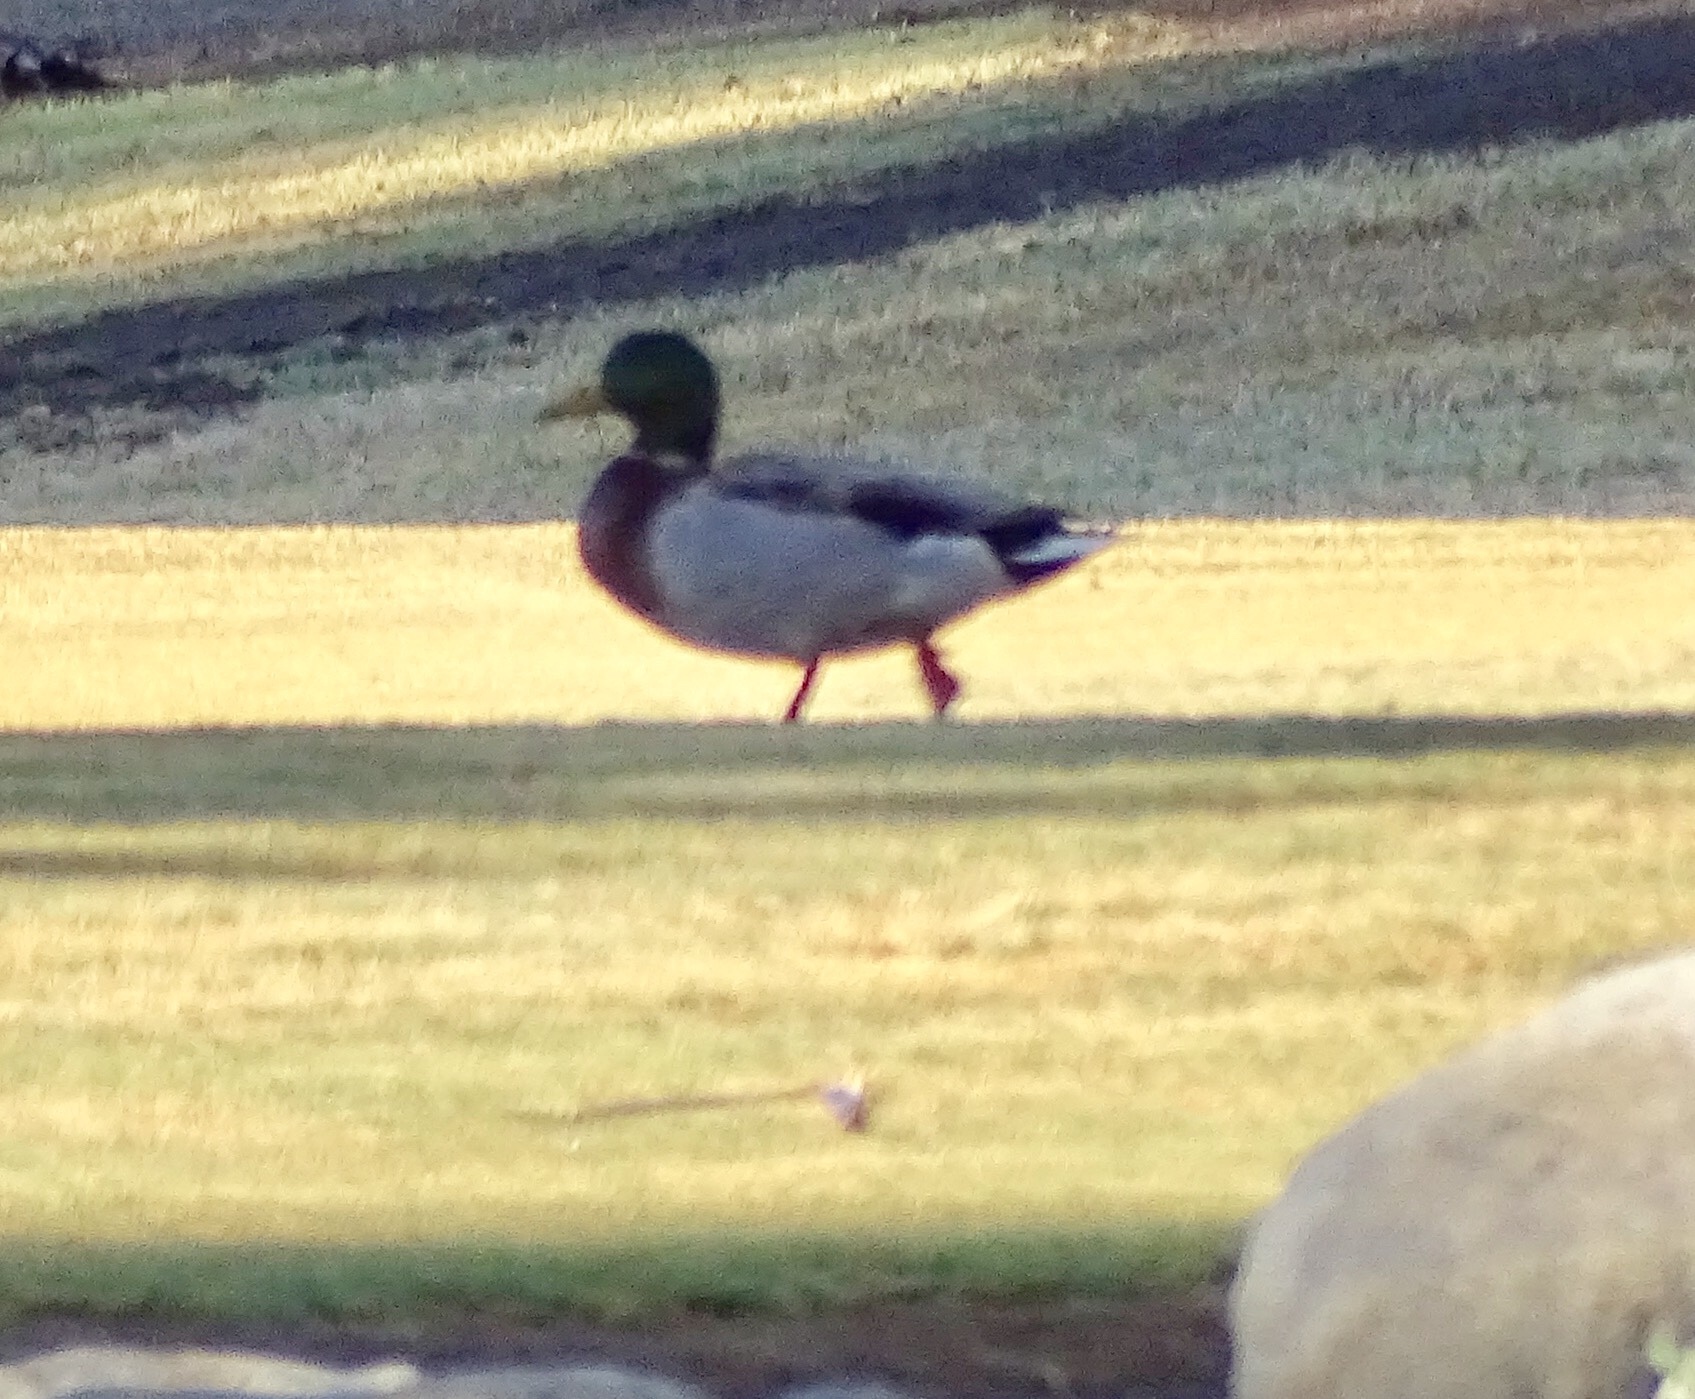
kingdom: Animalia
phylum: Chordata
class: Aves
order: Anseriformes
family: Anatidae
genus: Anas
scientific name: Anas platyrhynchos
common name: Mallard
